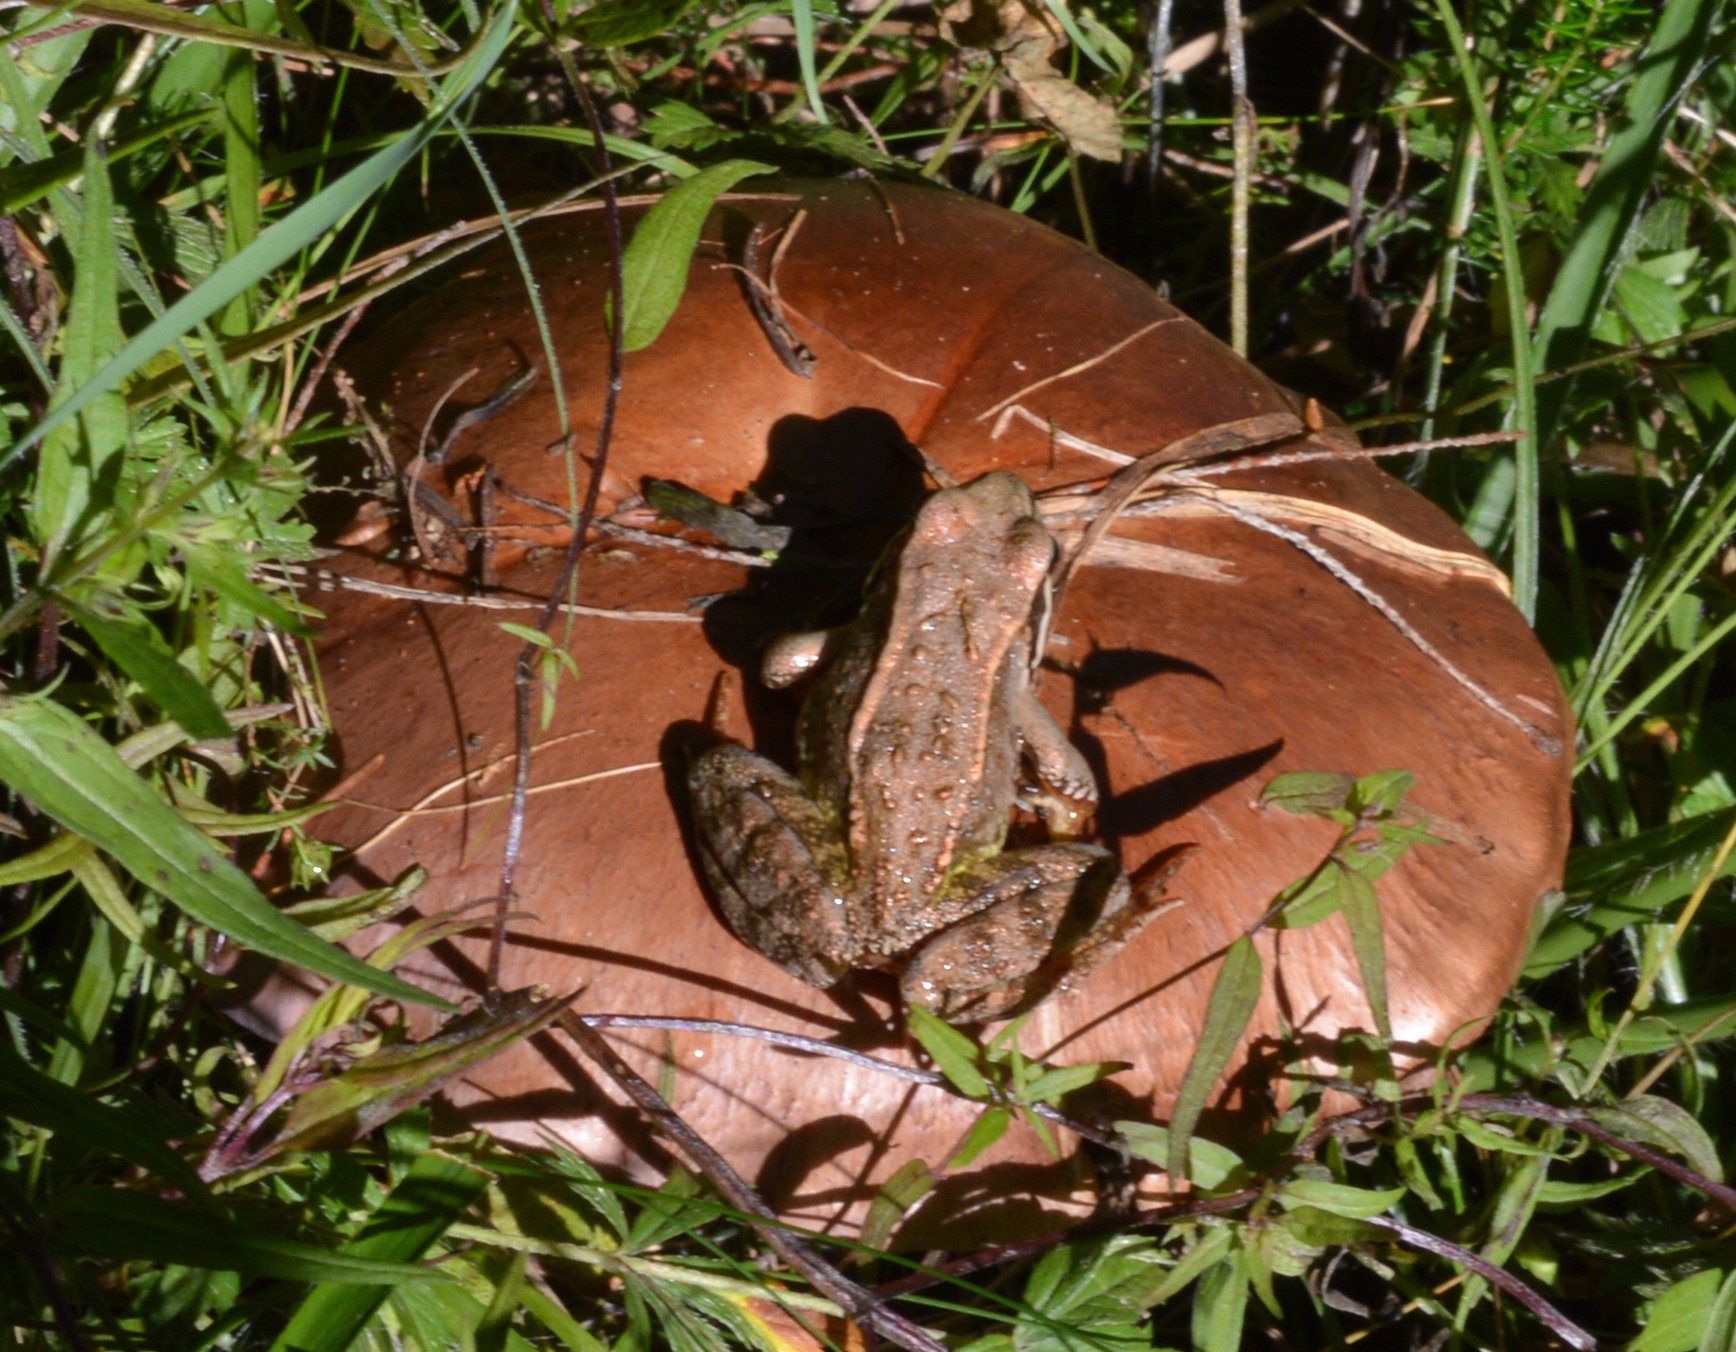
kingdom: Animalia
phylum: Chordata
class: Amphibia
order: Anura
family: Ranidae
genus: Rana
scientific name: Rana temporaria
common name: Common frog
